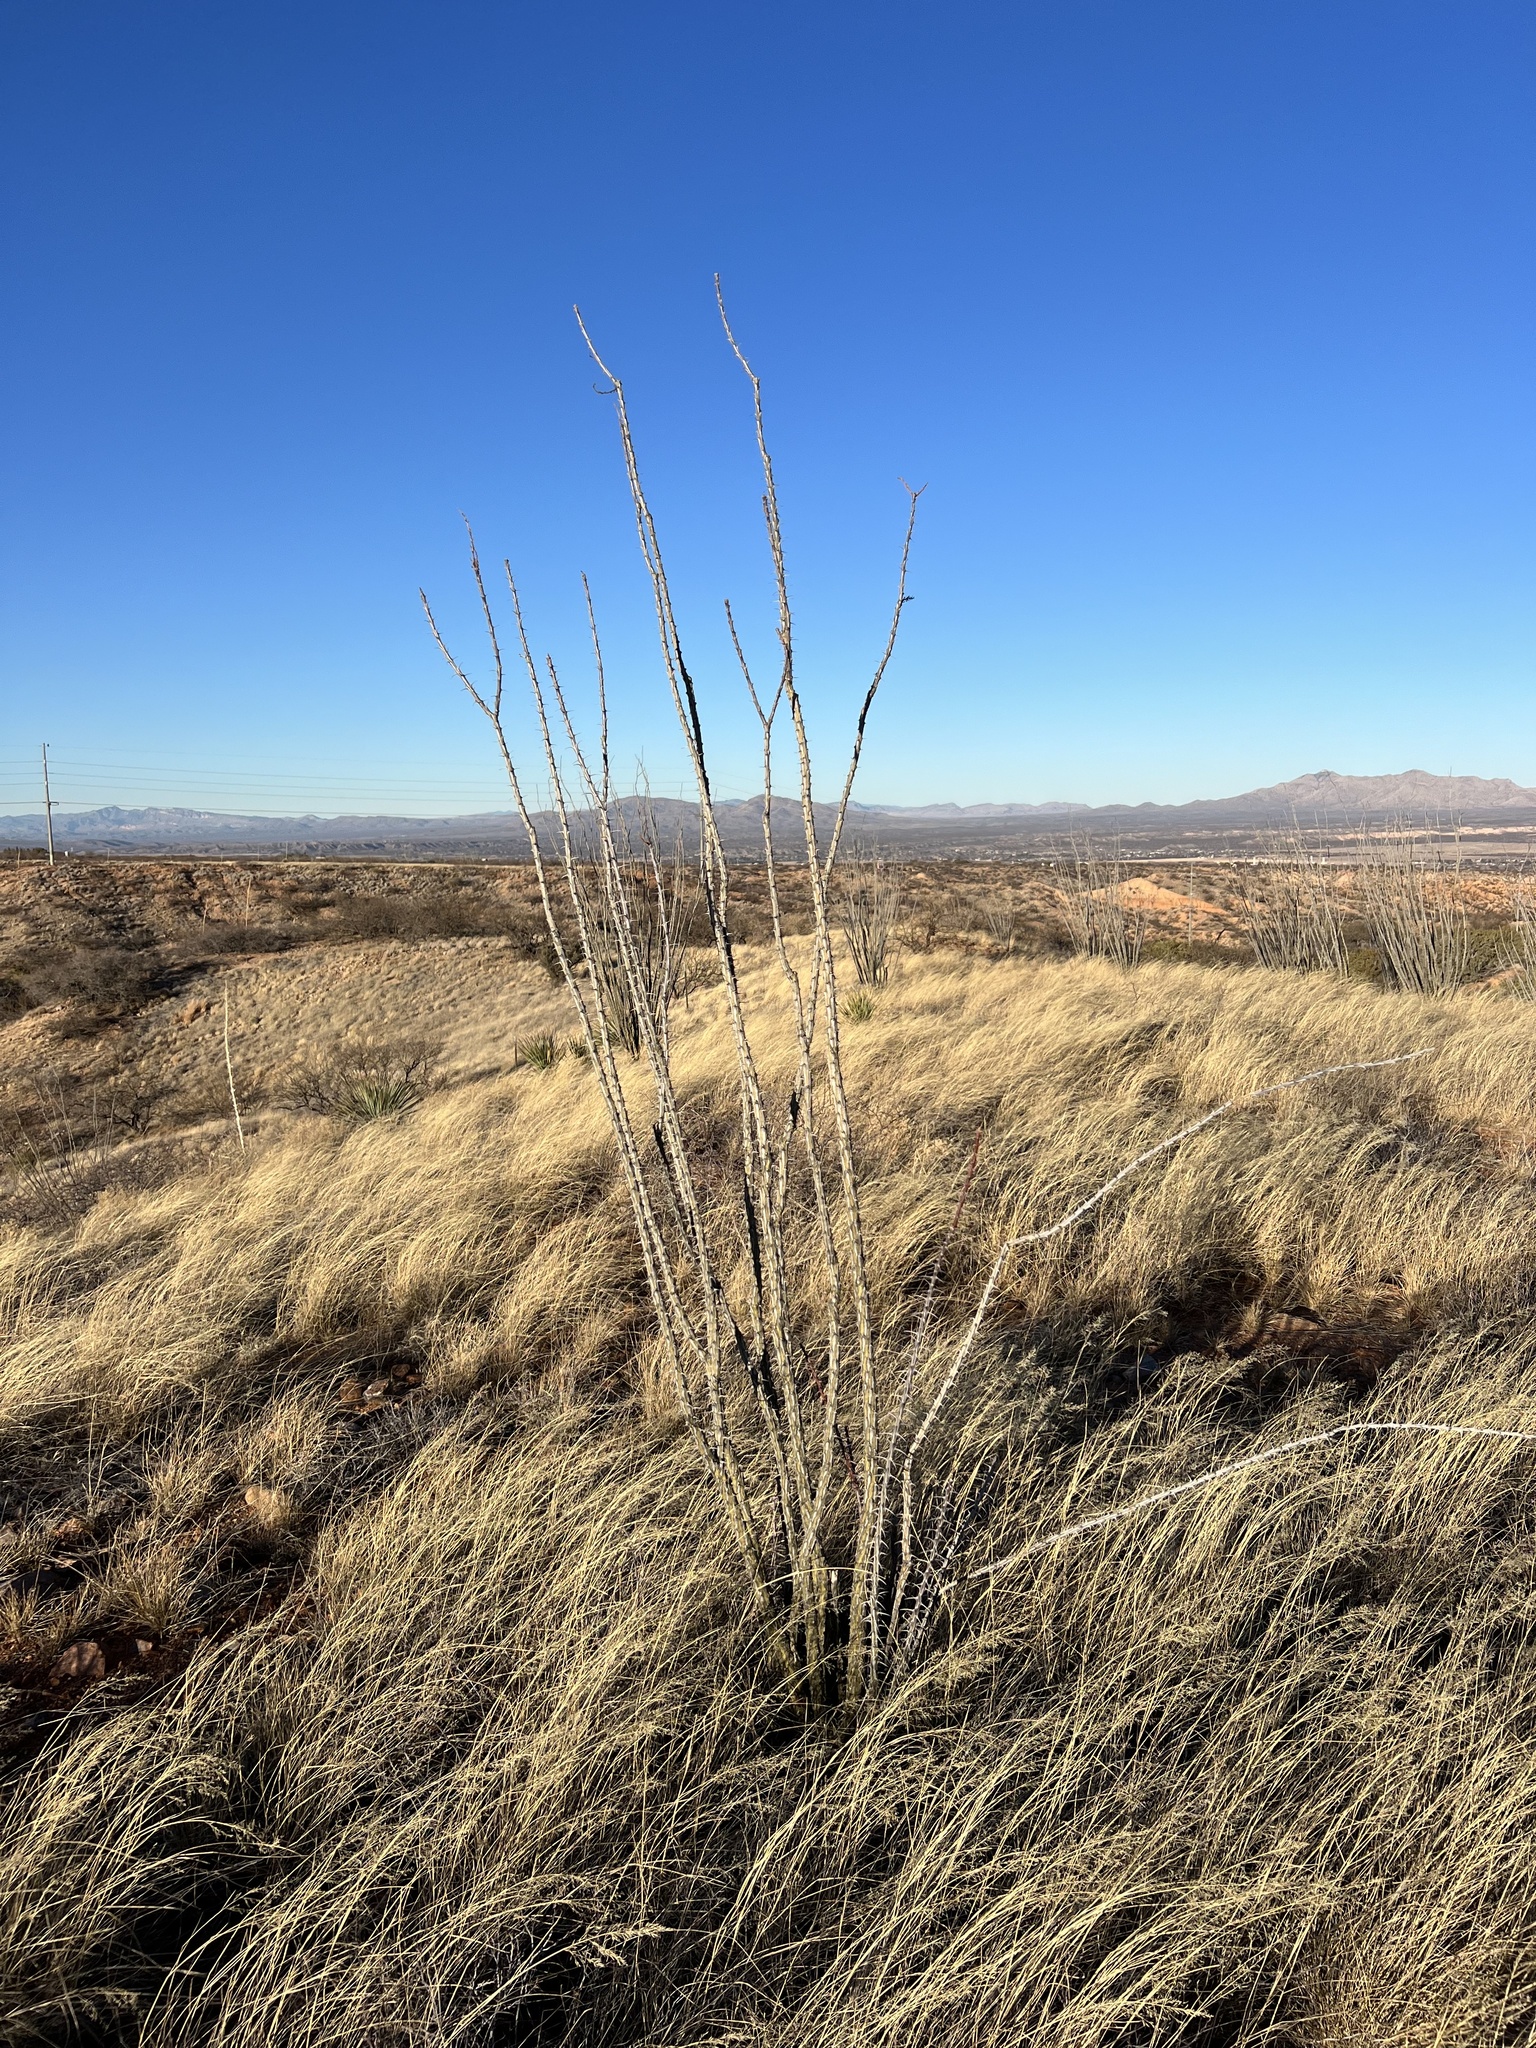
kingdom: Plantae
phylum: Tracheophyta
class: Magnoliopsida
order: Ericales
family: Fouquieriaceae
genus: Fouquieria
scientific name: Fouquieria splendens
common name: Vine-cactus
